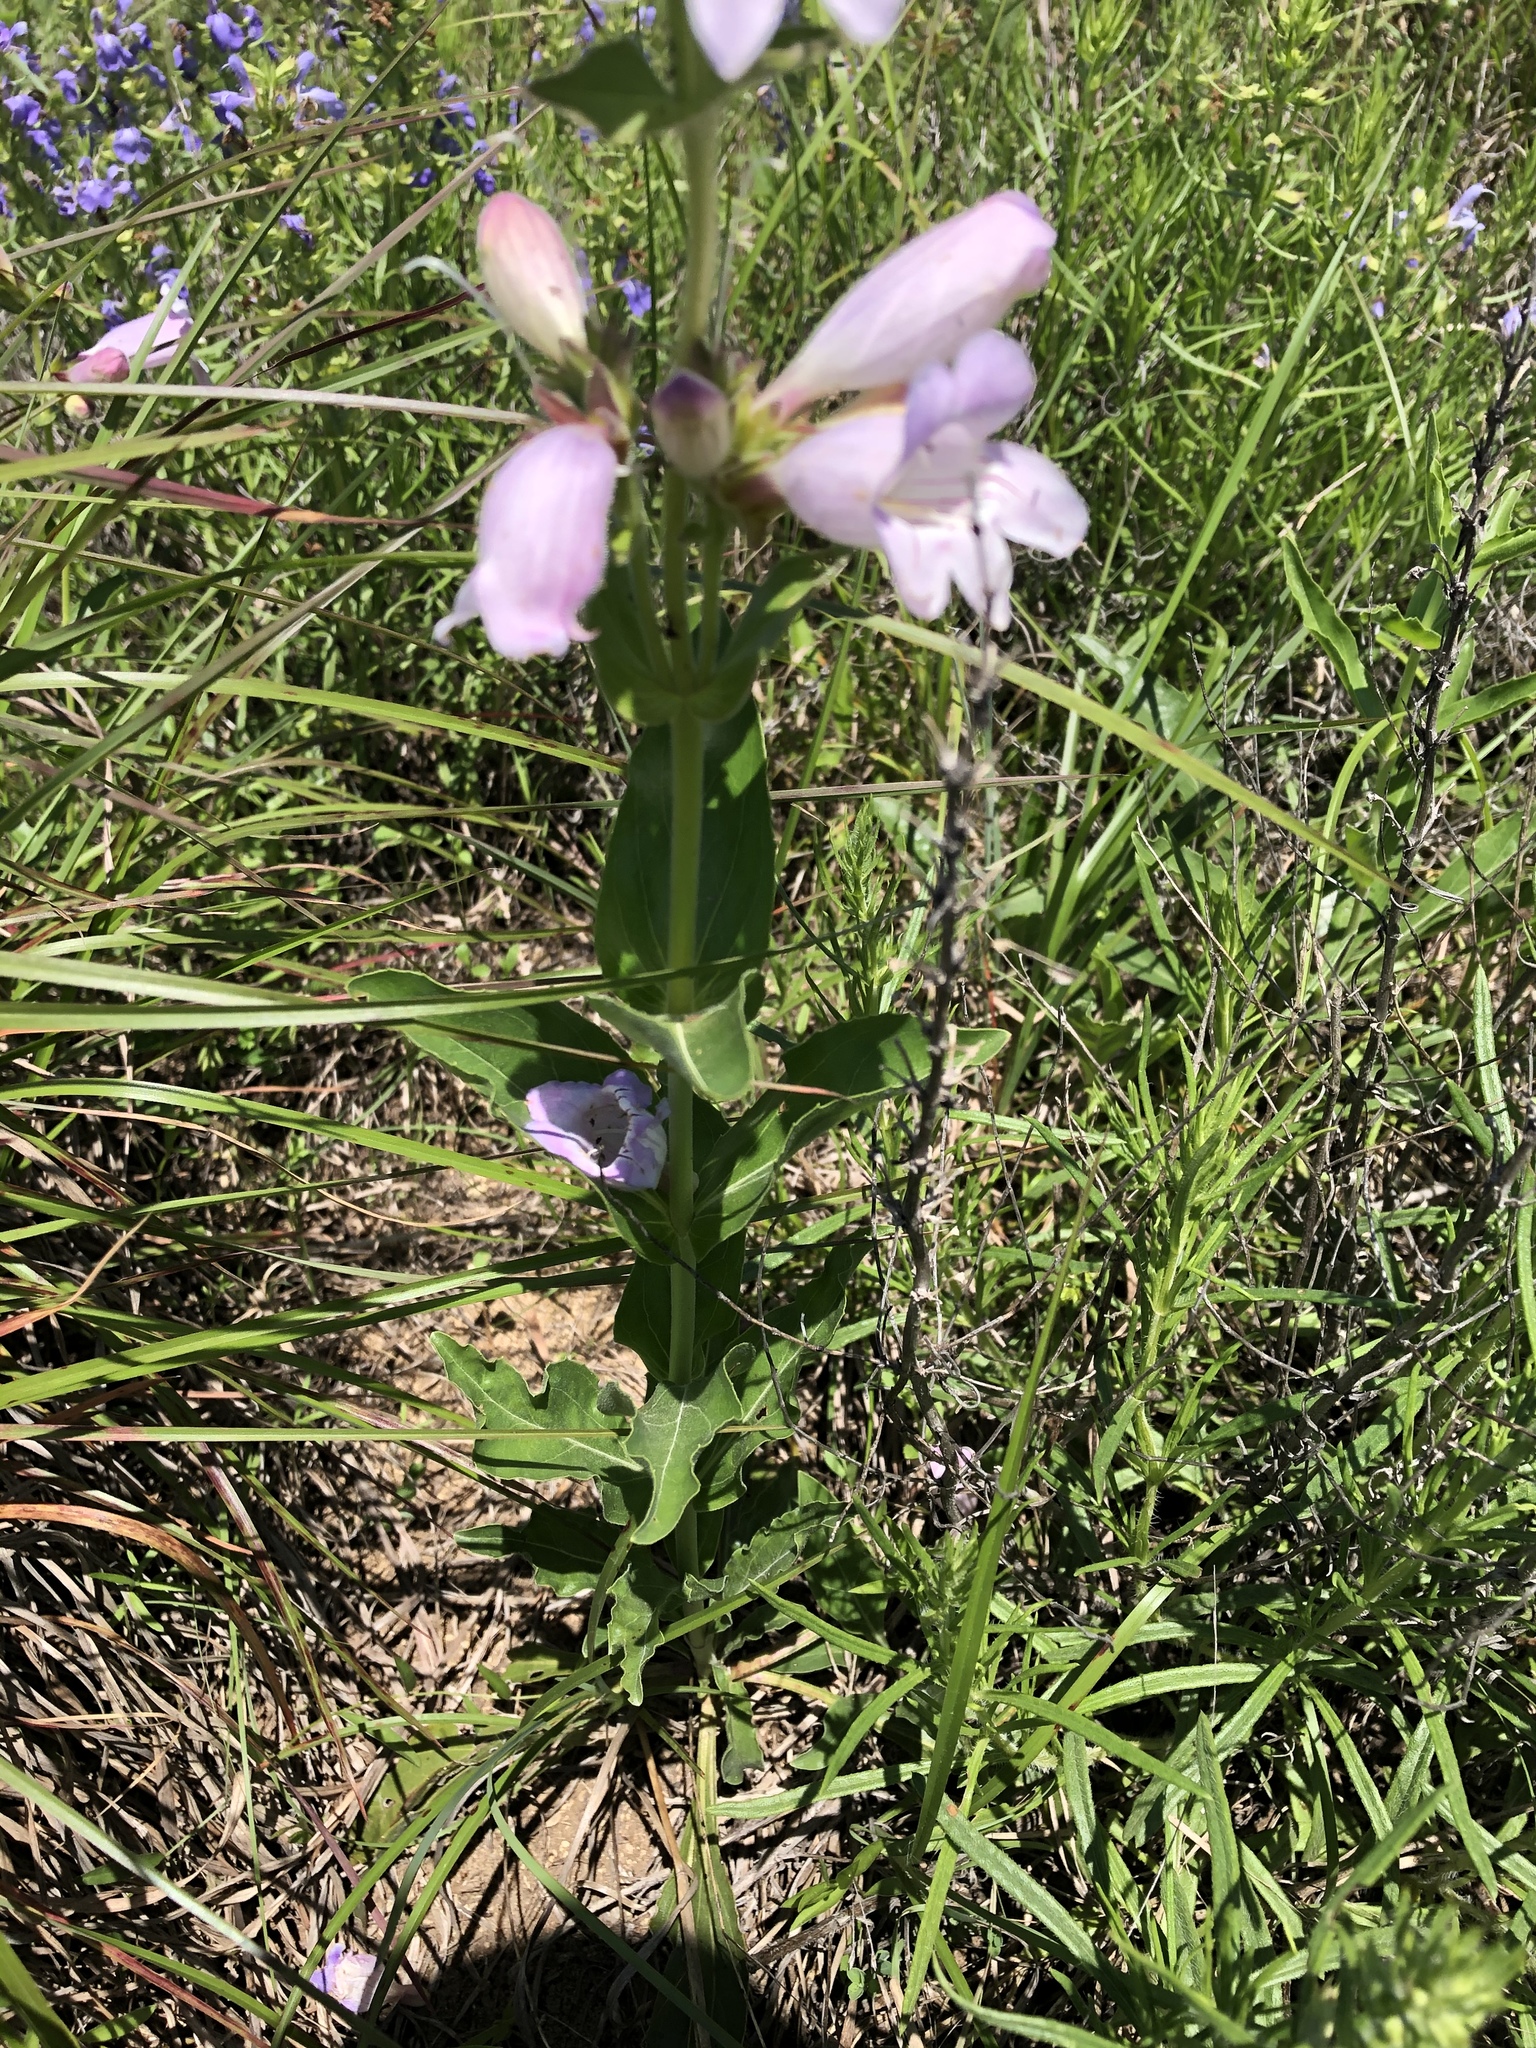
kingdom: Plantae
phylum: Tracheophyta
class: Magnoliopsida
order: Lamiales
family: Plantaginaceae
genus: Penstemon
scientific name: Penstemon cobaea
